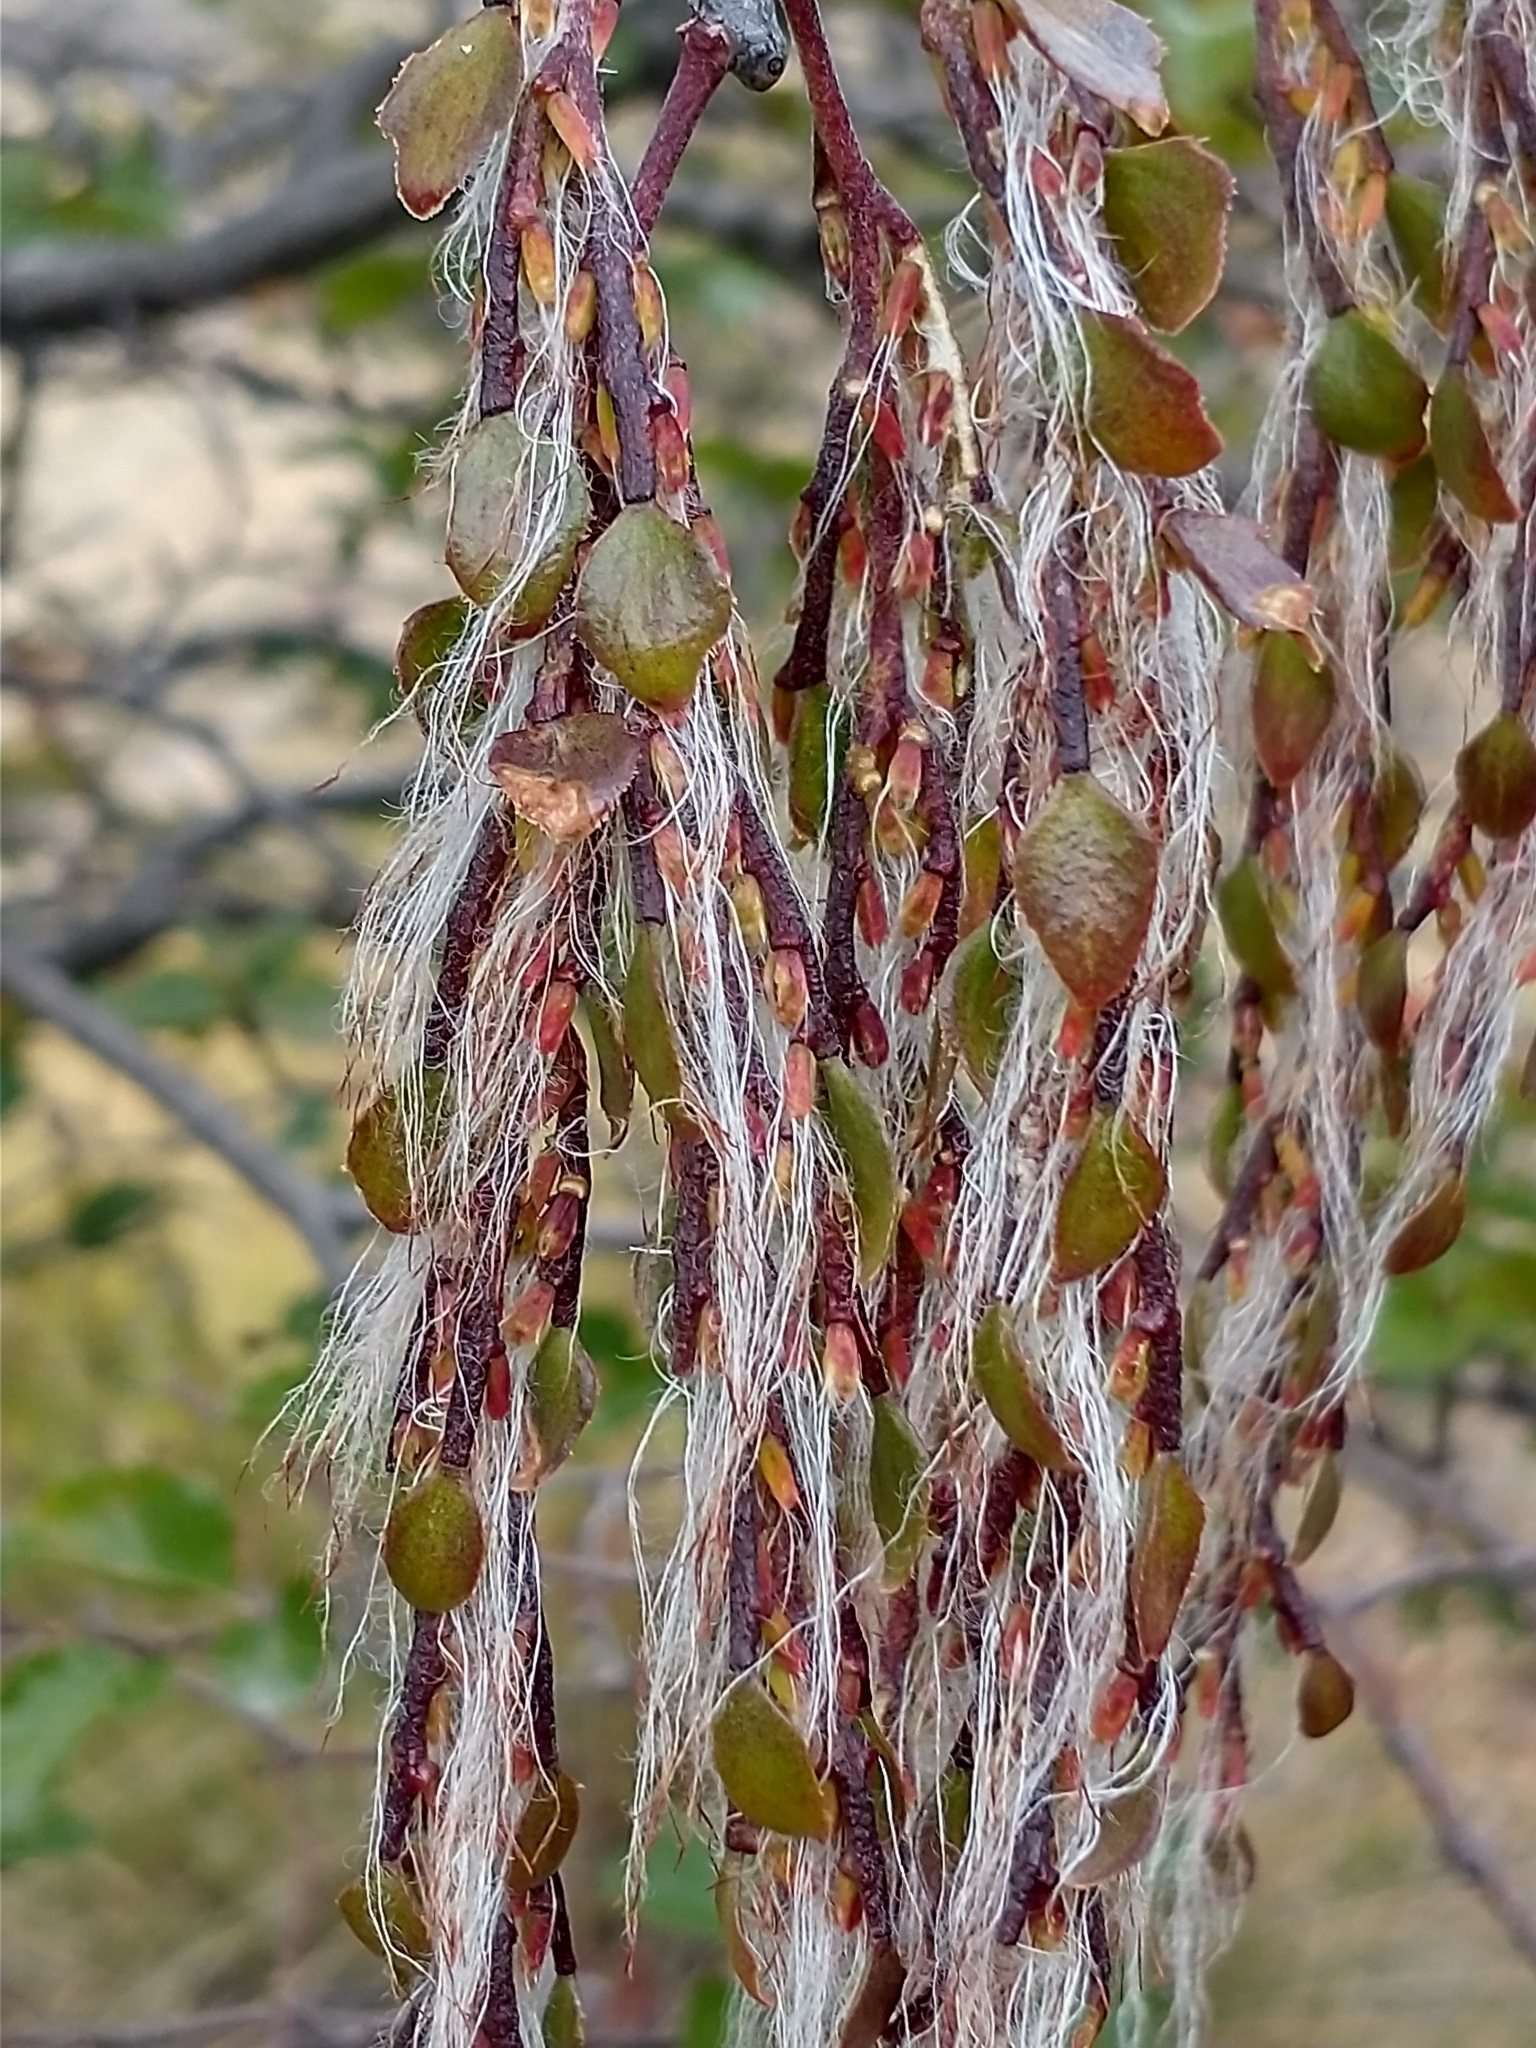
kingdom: Plantae
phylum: Tracheophyta
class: Magnoliopsida
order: Santalales
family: Misodendraceae
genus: Misodendrum
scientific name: Misodendrum quadriflorum
